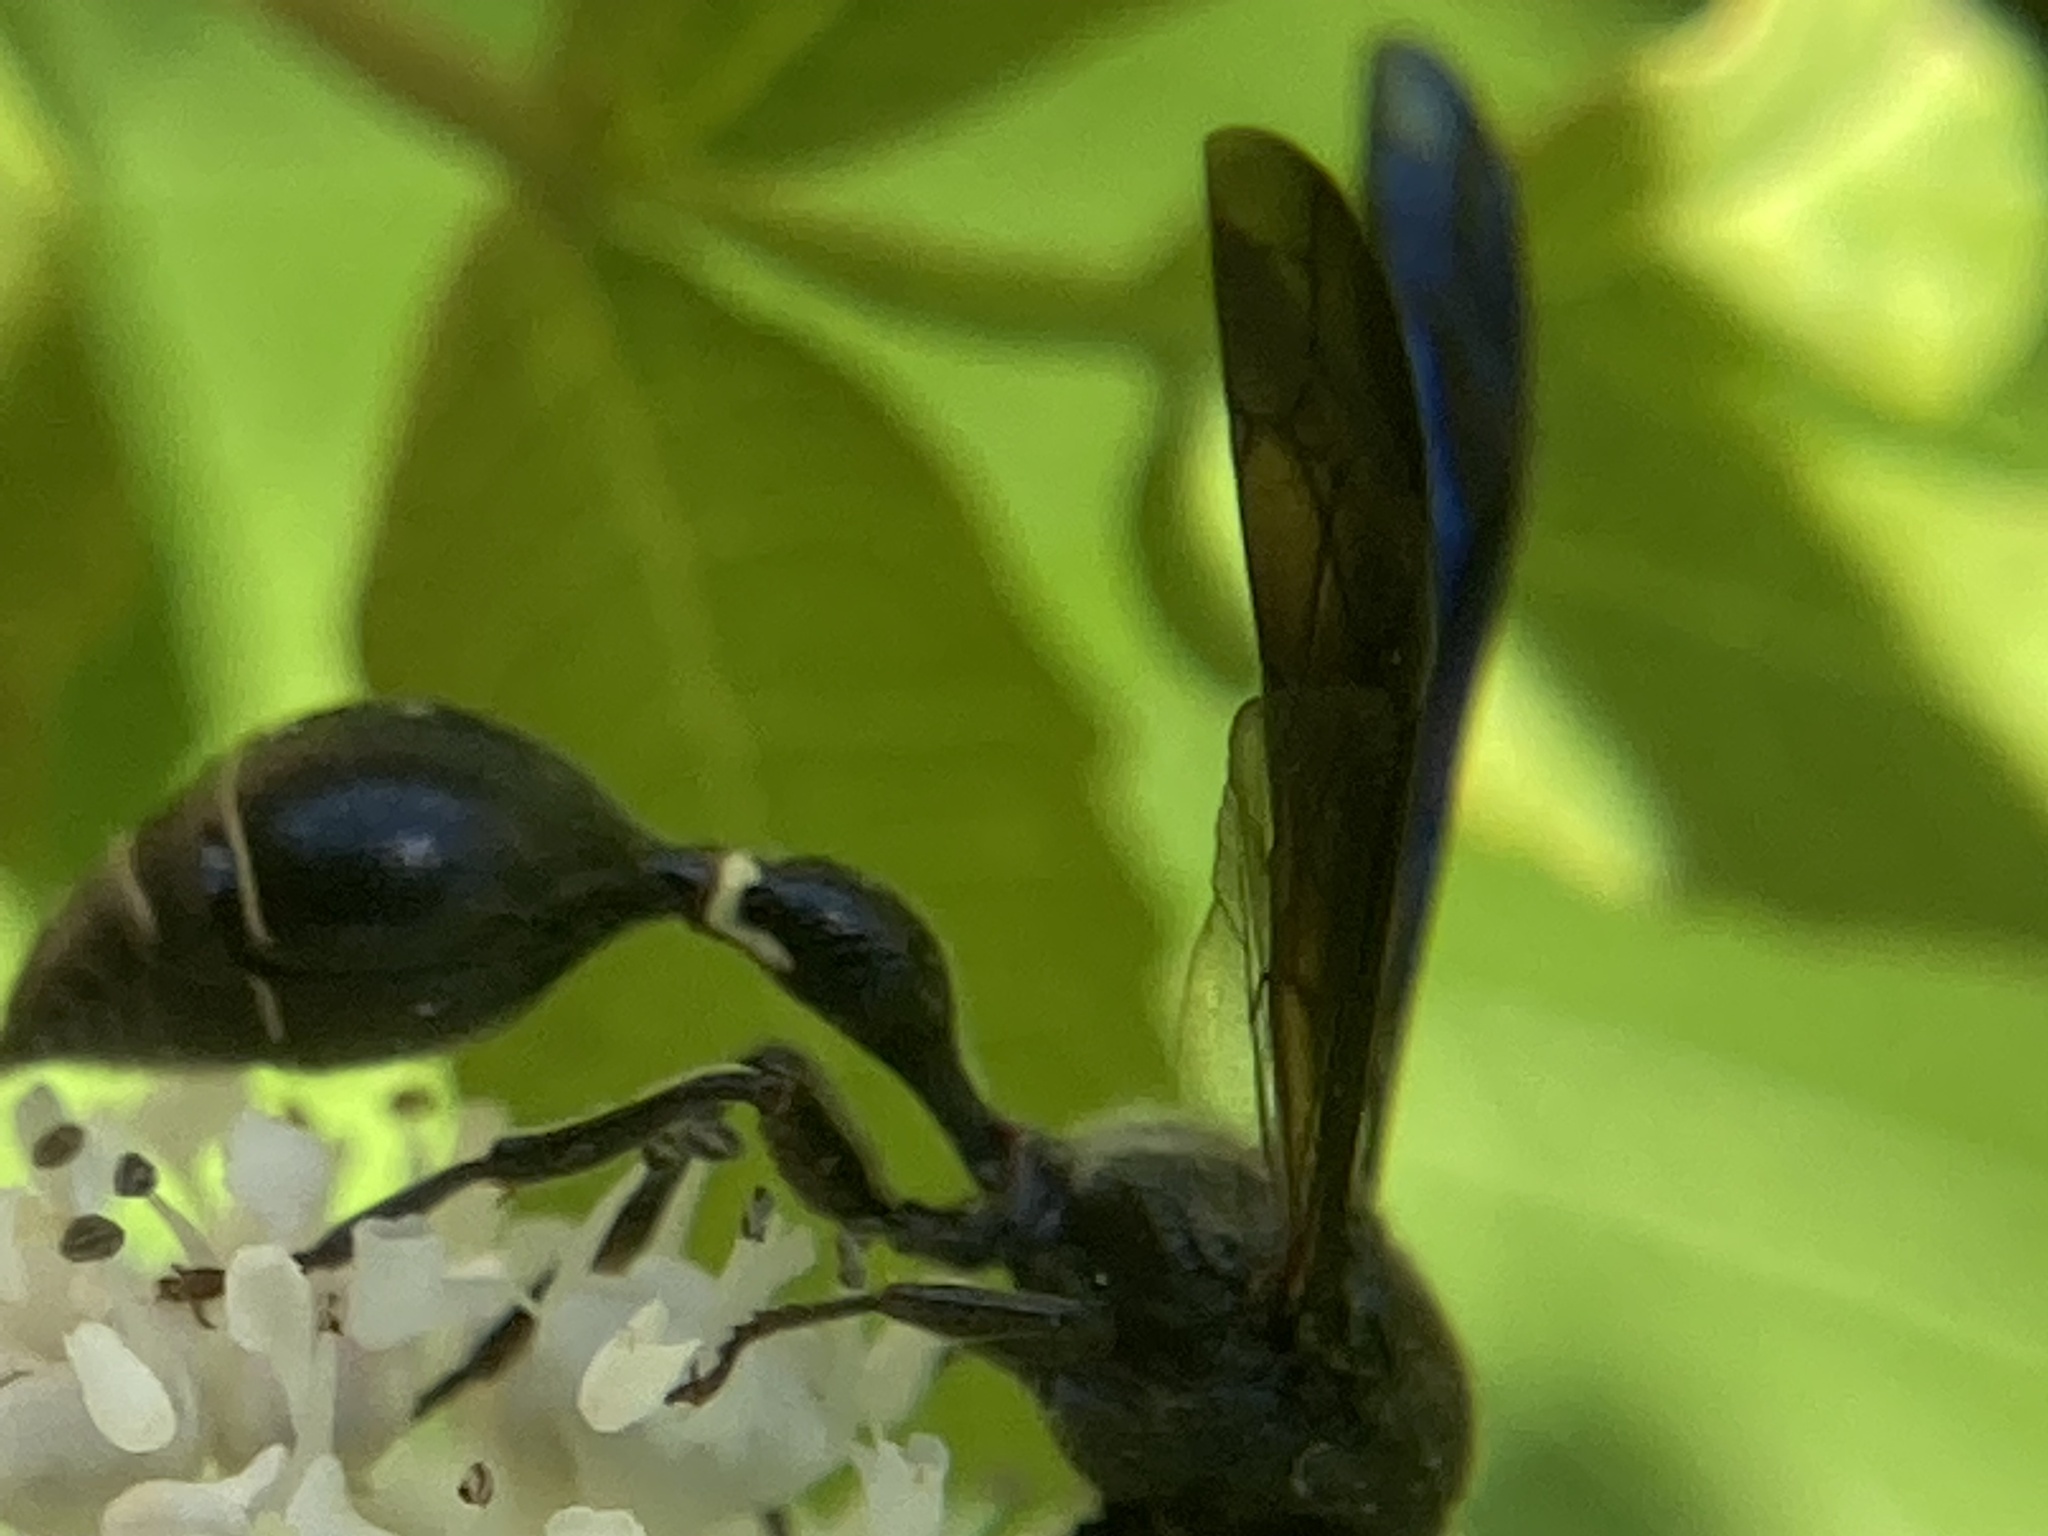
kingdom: Animalia
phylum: Arthropoda
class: Insecta
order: Hymenoptera
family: Eumenidae
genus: Zethus
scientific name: Zethus spinipes
